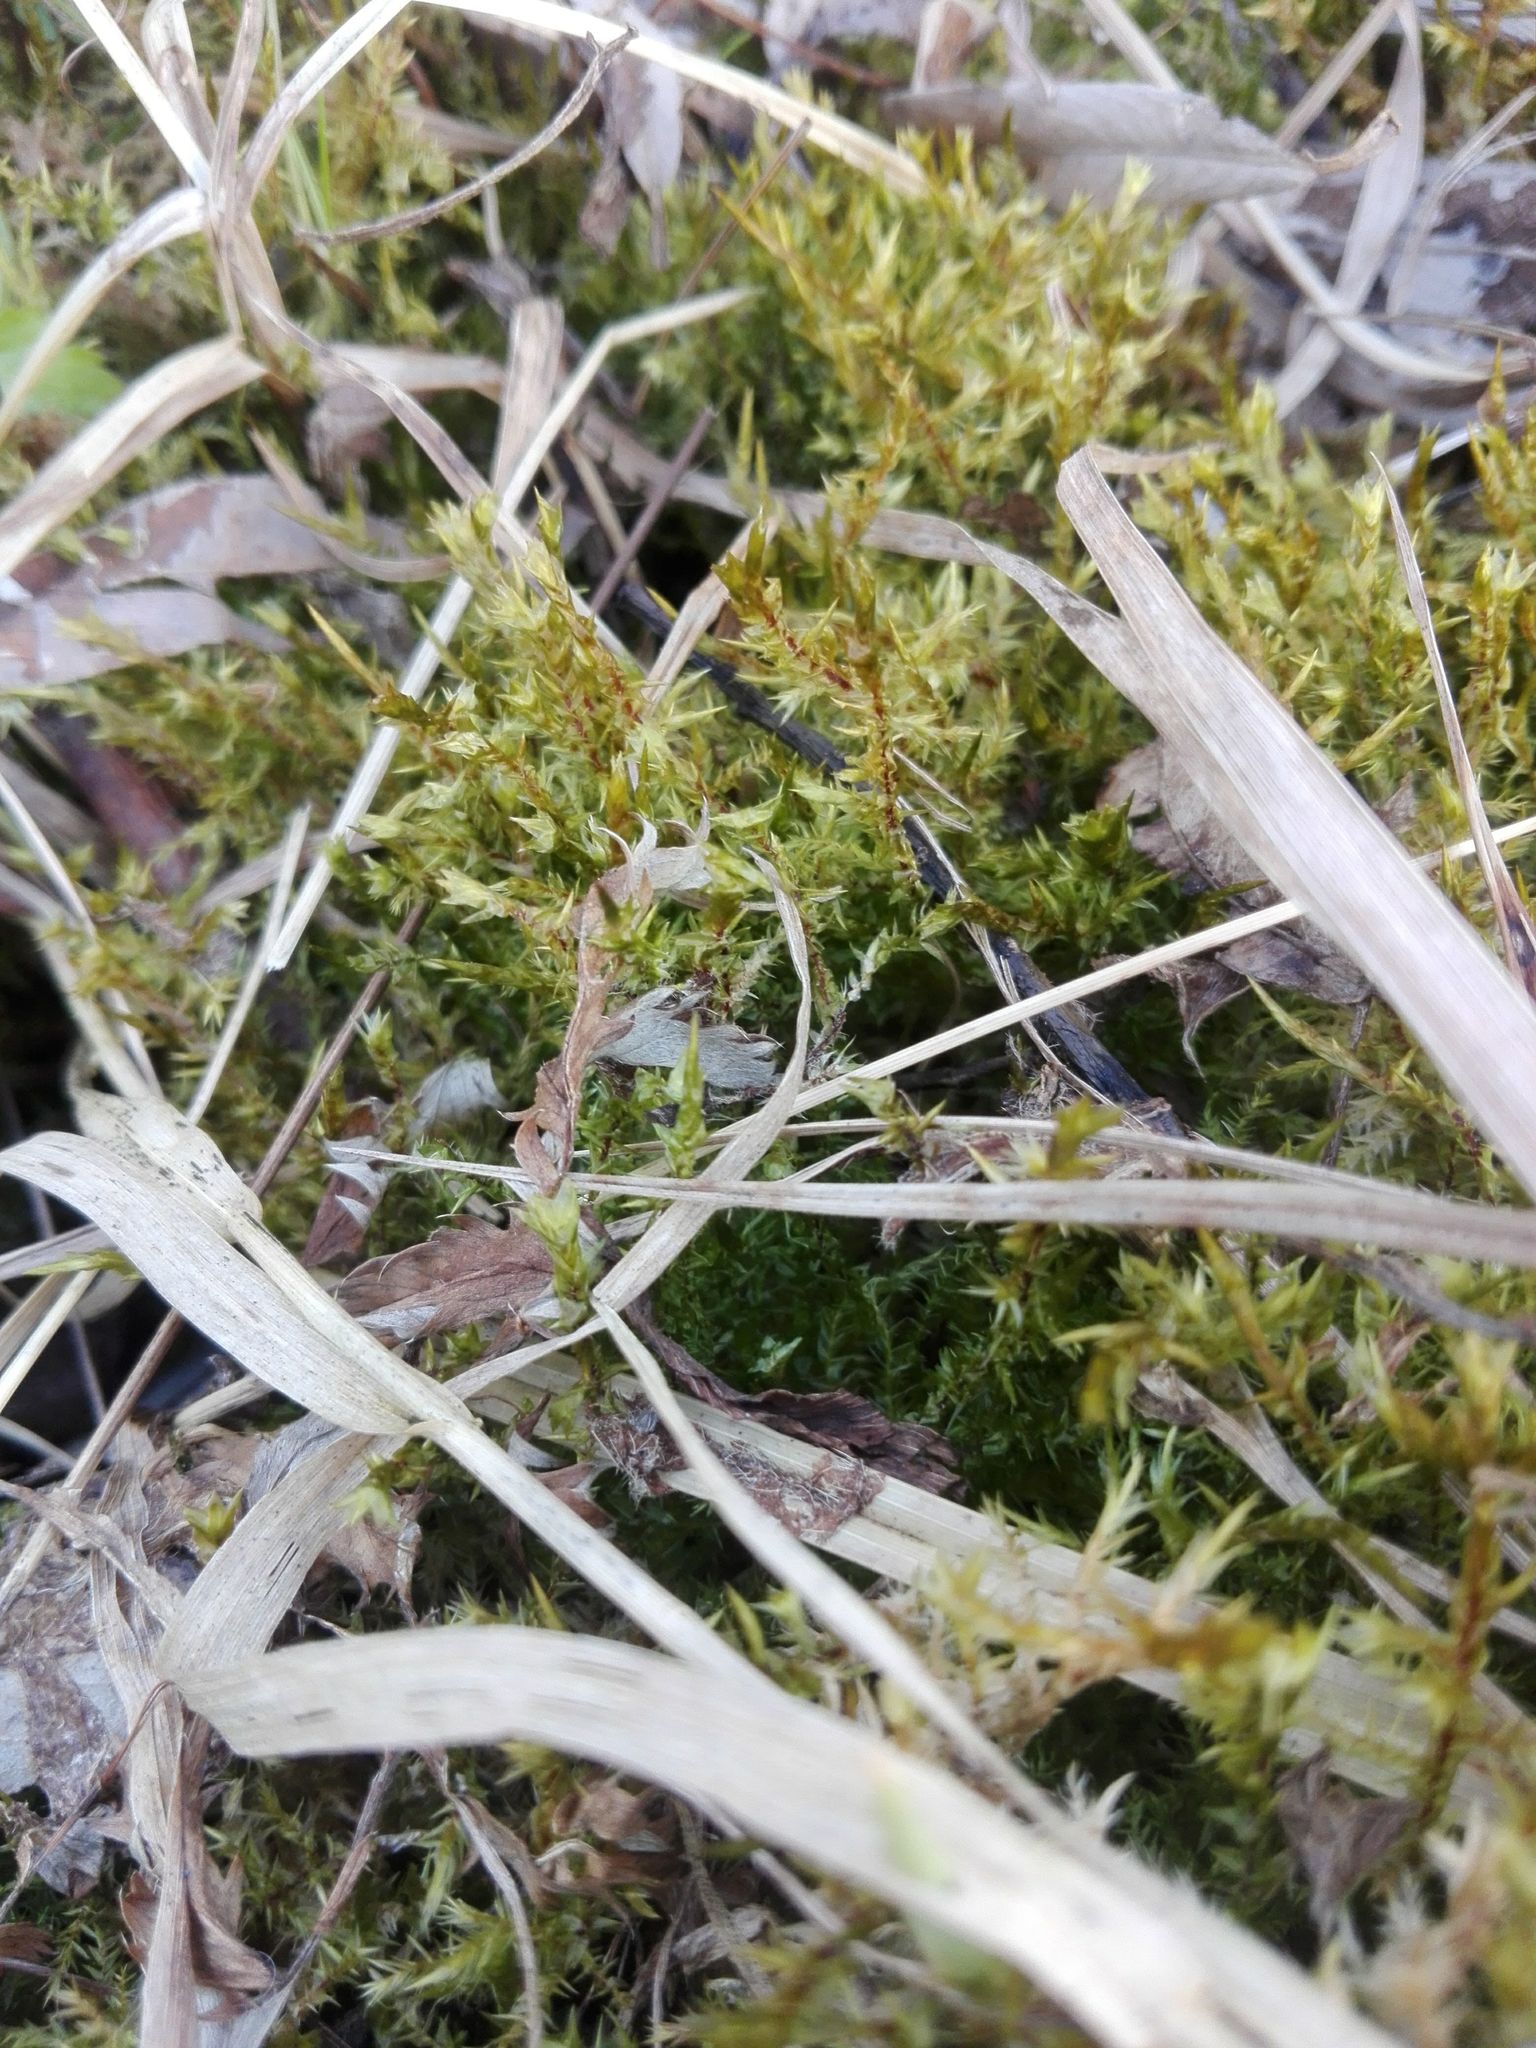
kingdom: Plantae
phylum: Bryophyta
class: Bryopsida
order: Hypnales
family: Pylaisiaceae
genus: Calliergonella
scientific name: Calliergonella cuspidata
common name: Common large wetland moss
